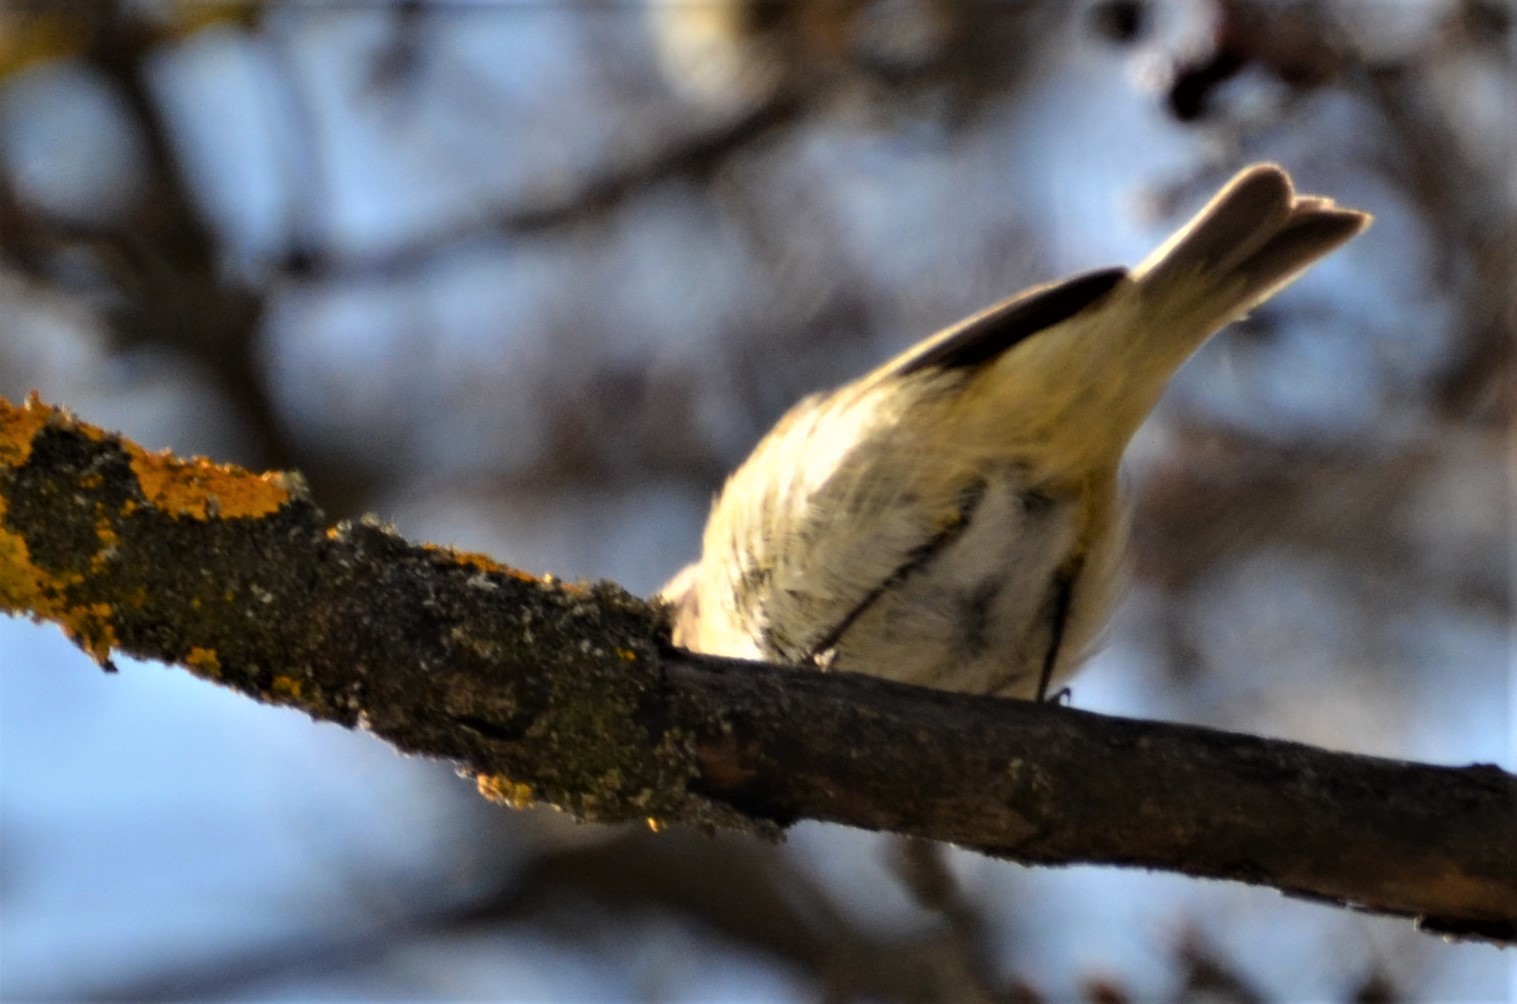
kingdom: Animalia
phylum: Chordata
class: Aves
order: Passeriformes
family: Phylloscopidae
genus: Phylloscopus
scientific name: Phylloscopus collybita
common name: Common chiffchaff
